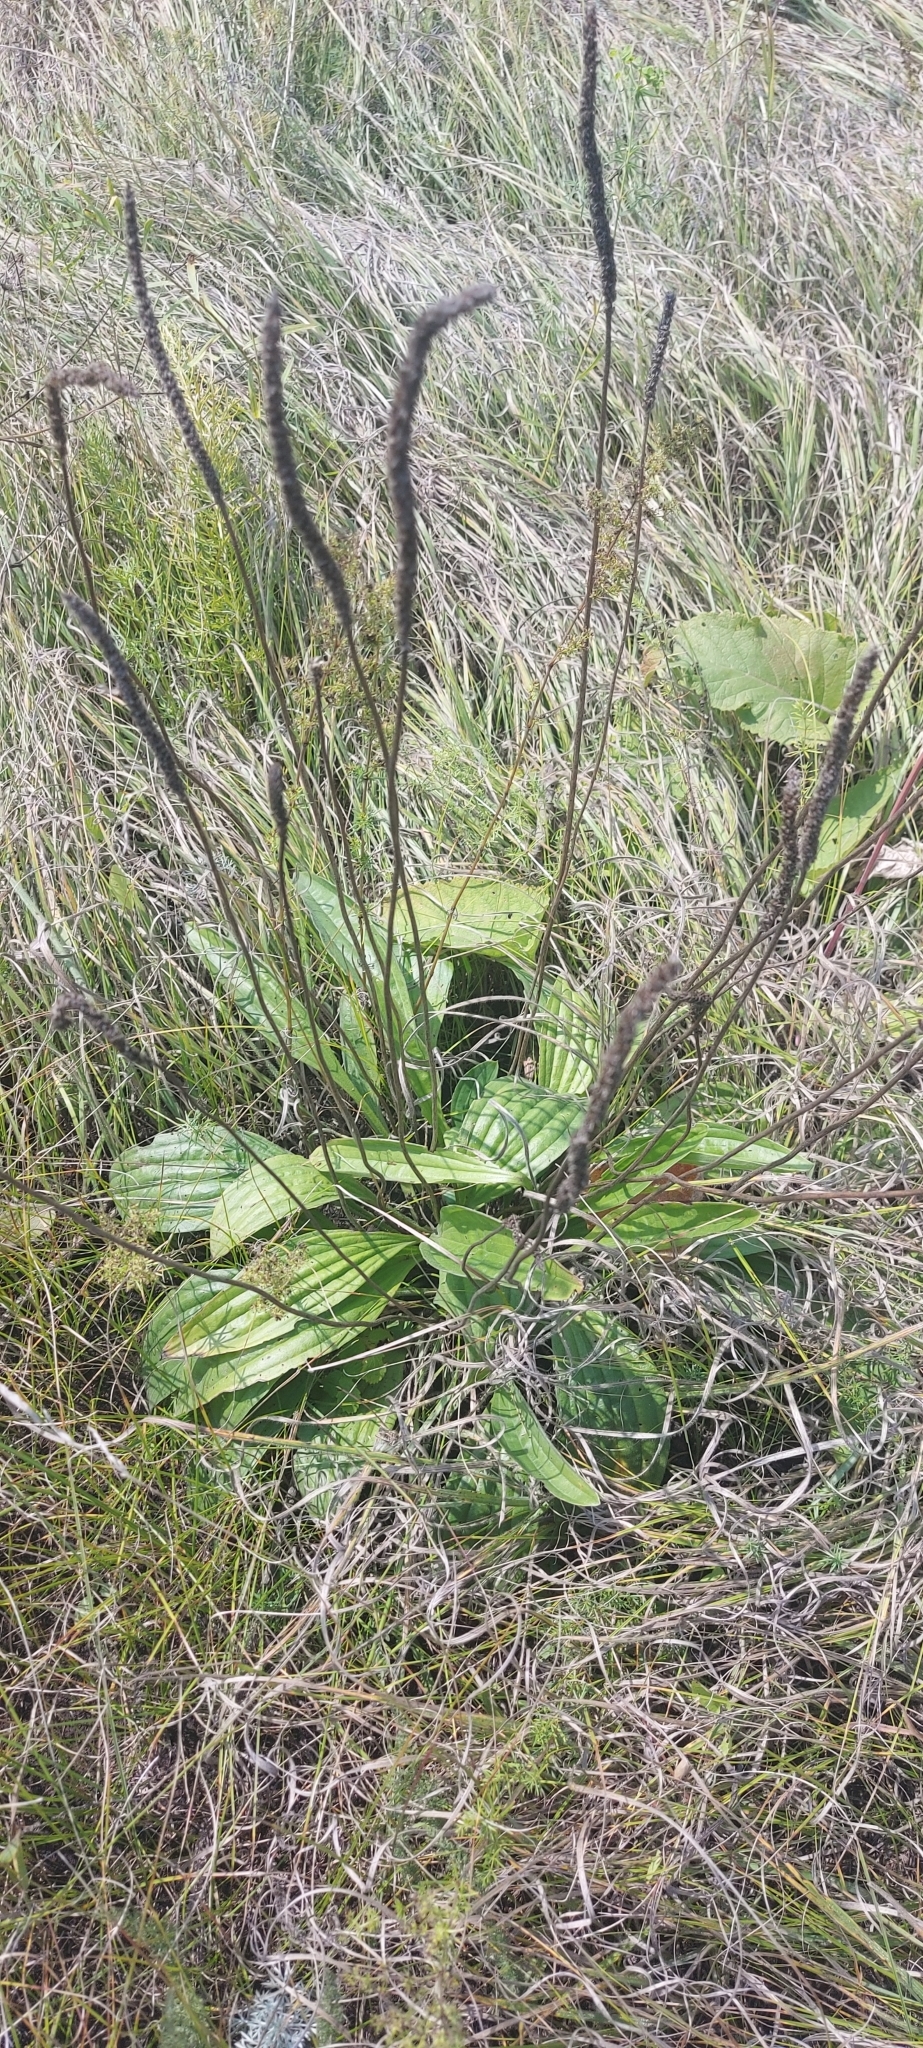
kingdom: Plantae
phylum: Tracheophyta
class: Magnoliopsida
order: Lamiales
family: Plantaginaceae
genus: Plantago
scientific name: Plantago urvillei
